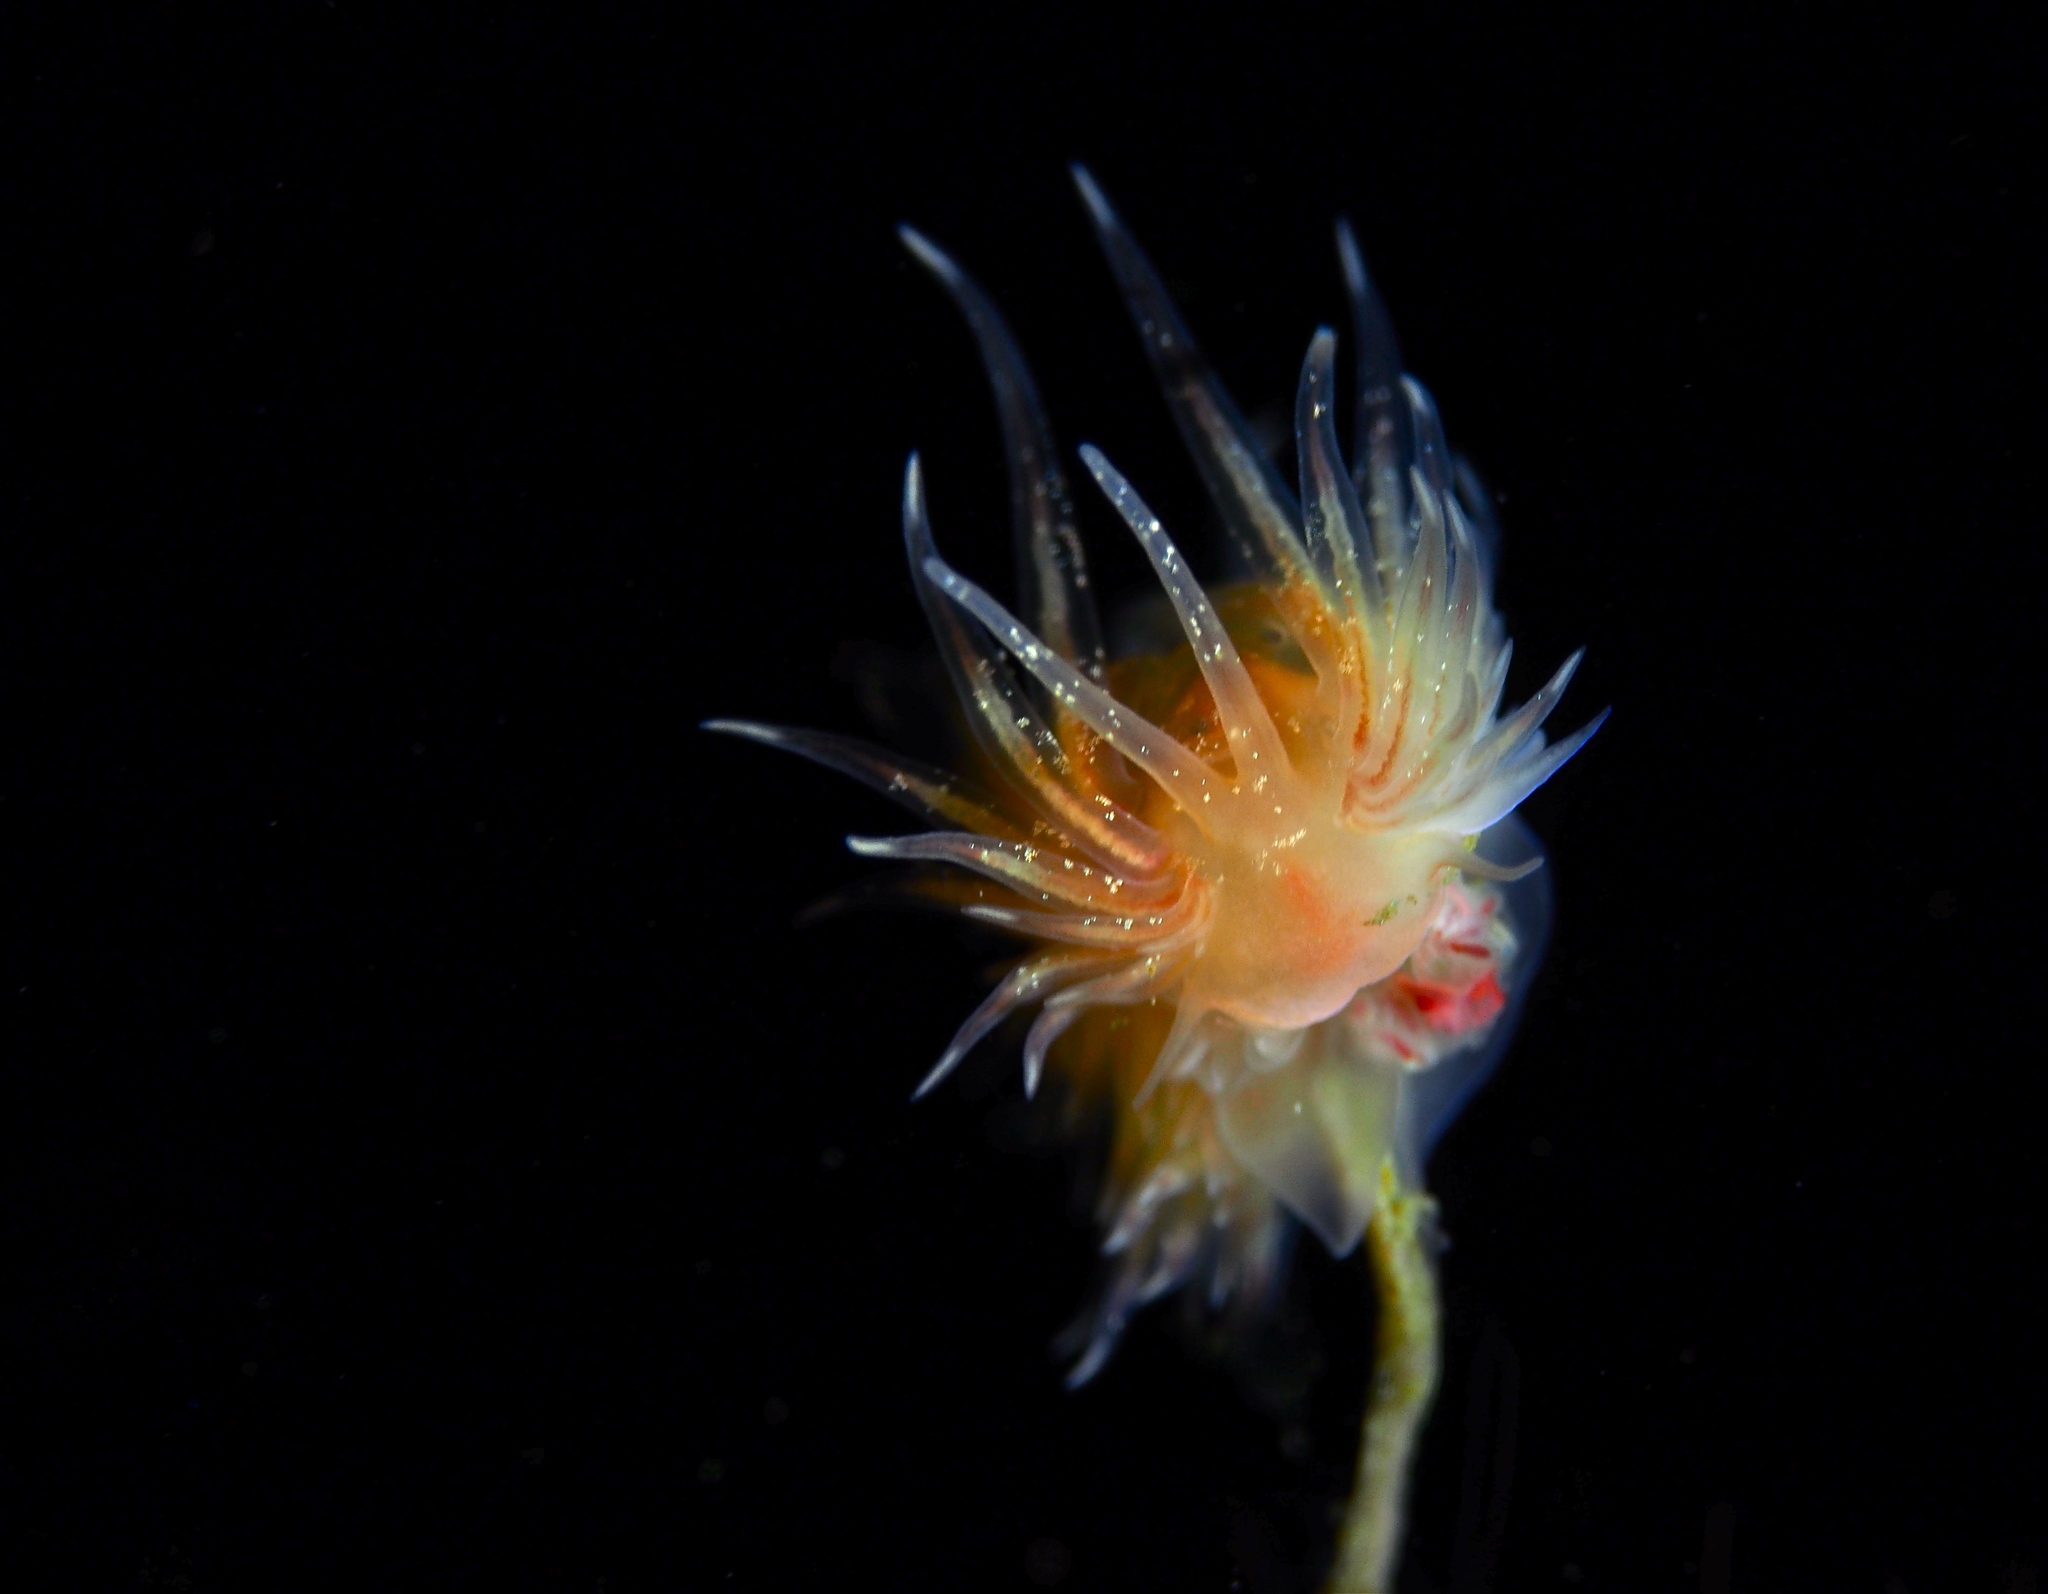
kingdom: Animalia
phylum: Mollusca
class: Gastropoda
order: Nudibranchia
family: Cumanotidae
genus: Cumanotus
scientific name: Cumanotus beaumonti
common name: Polyp aeolis
